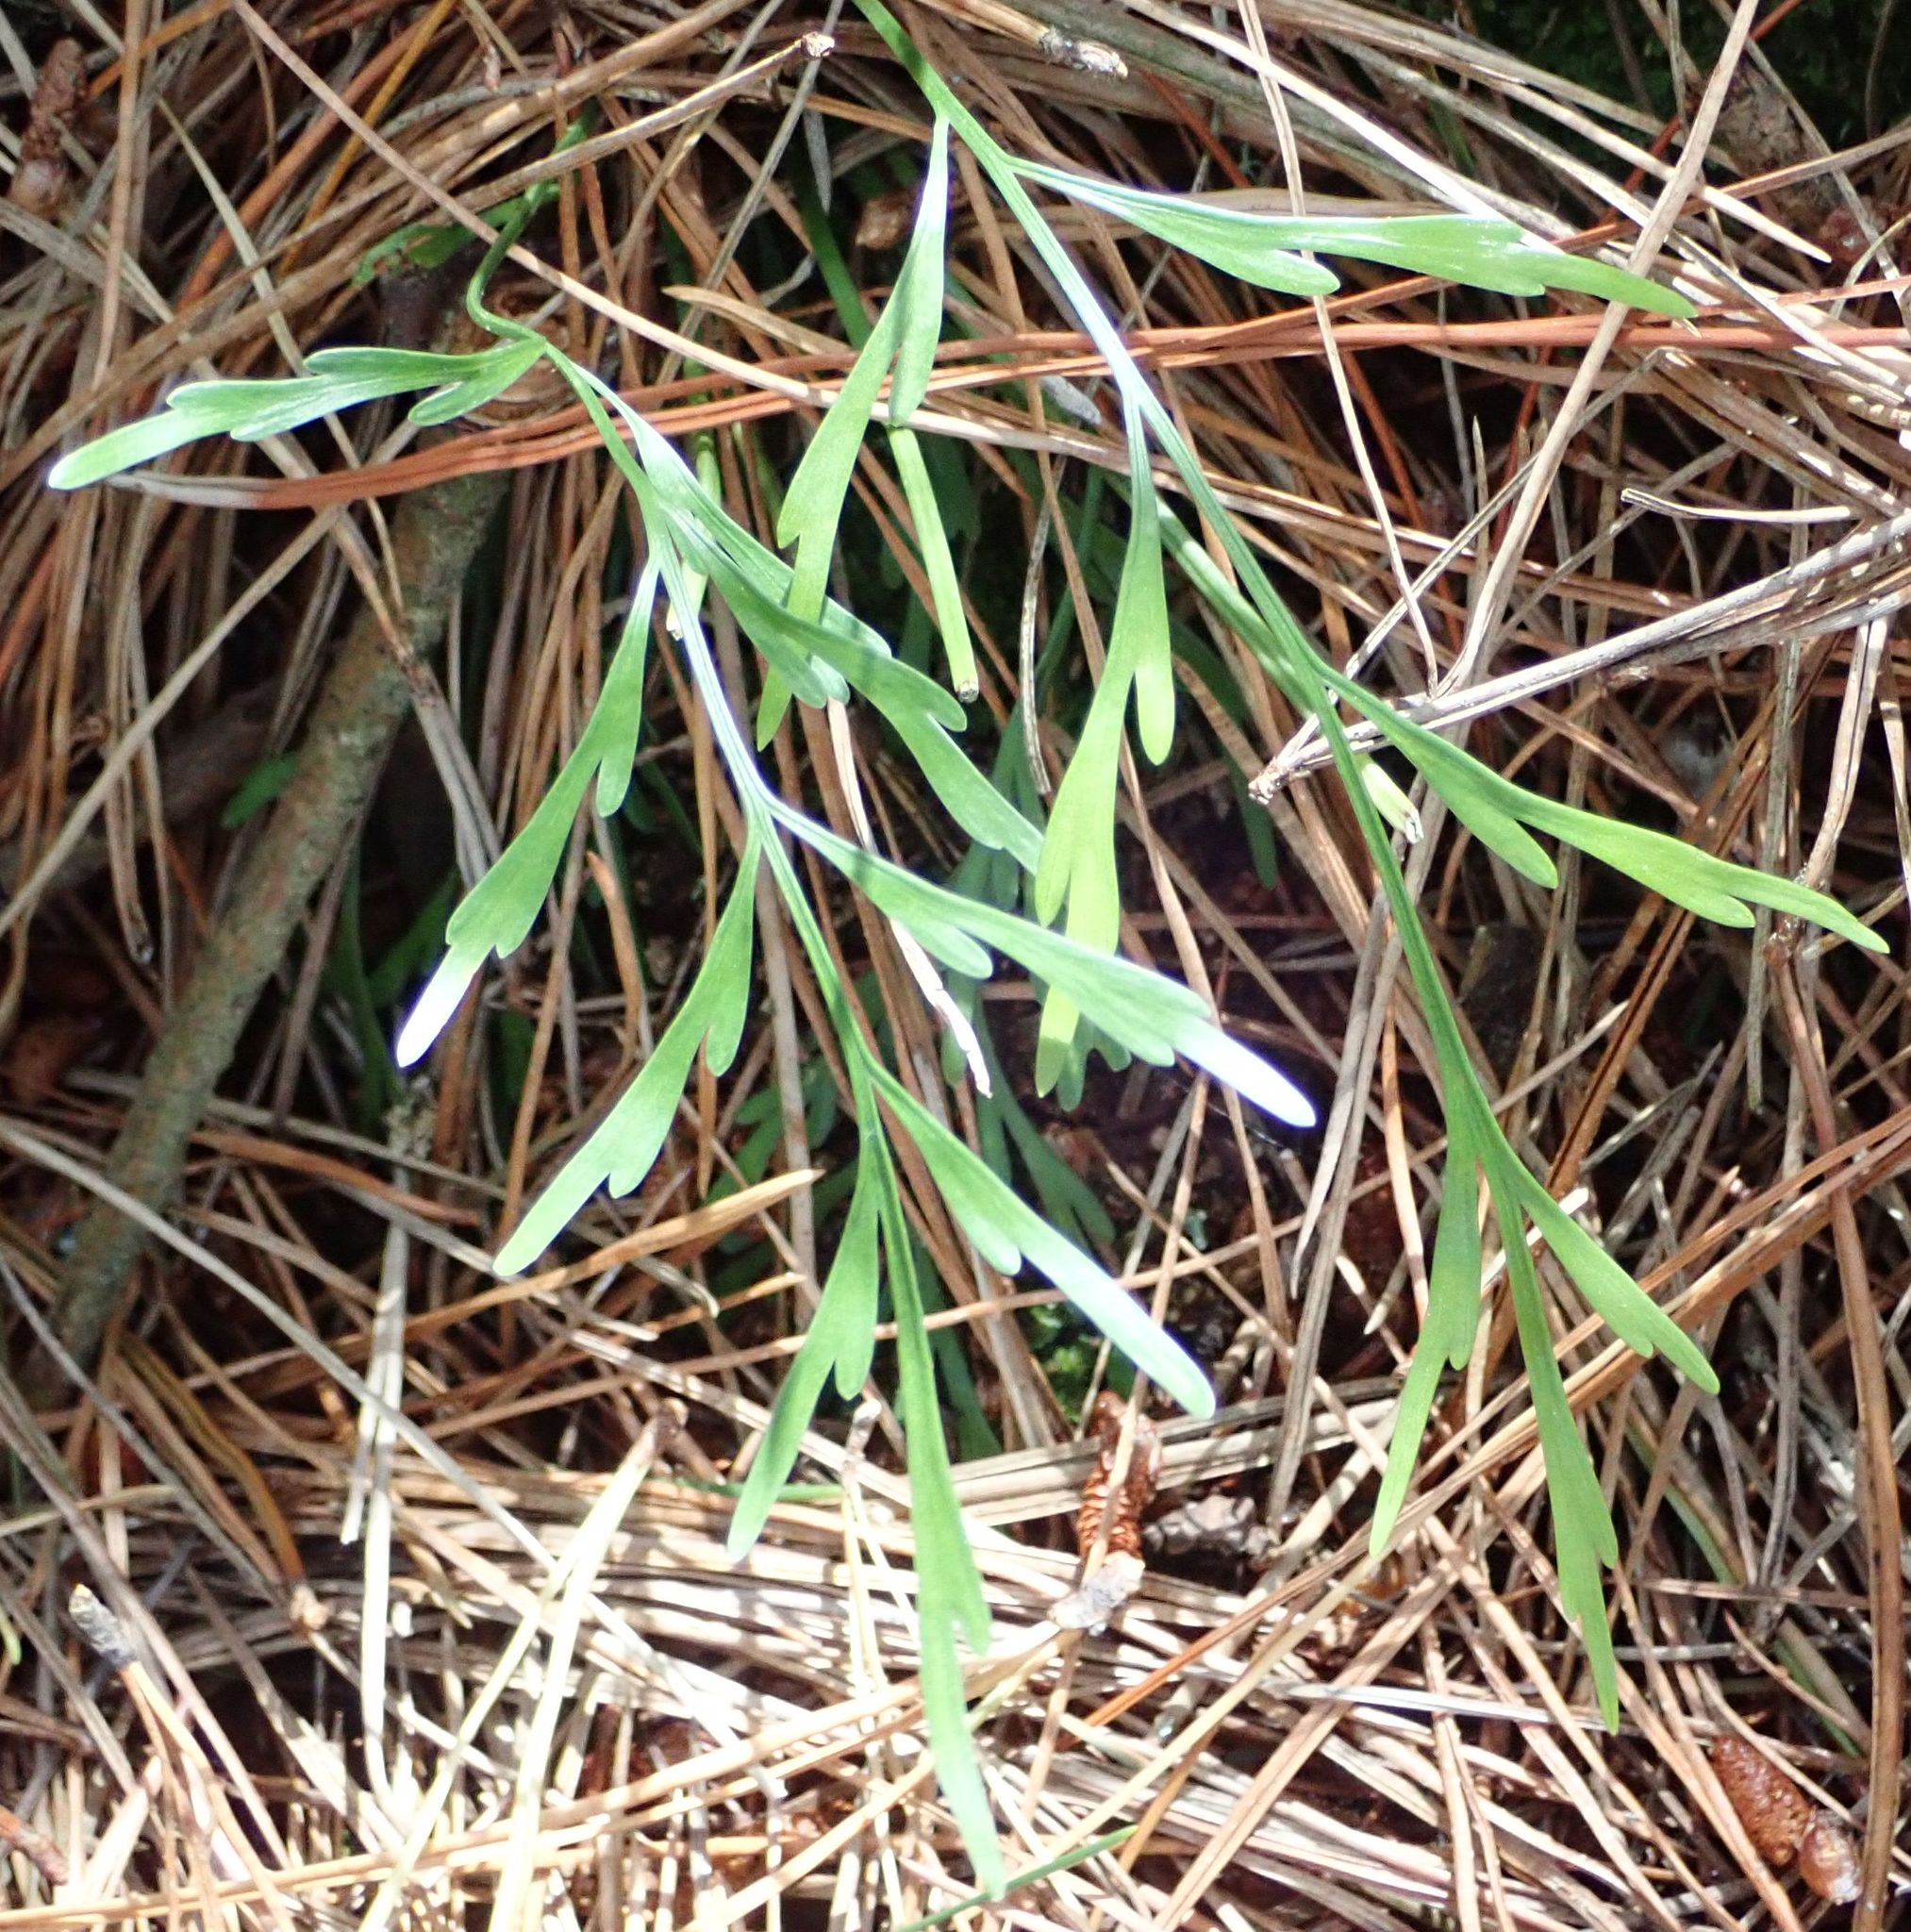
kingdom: Plantae
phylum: Tracheophyta
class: Polypodiopsida
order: Polypodiales
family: Aspleniaceae
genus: Asplenium
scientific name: Asplenium flaccidum
